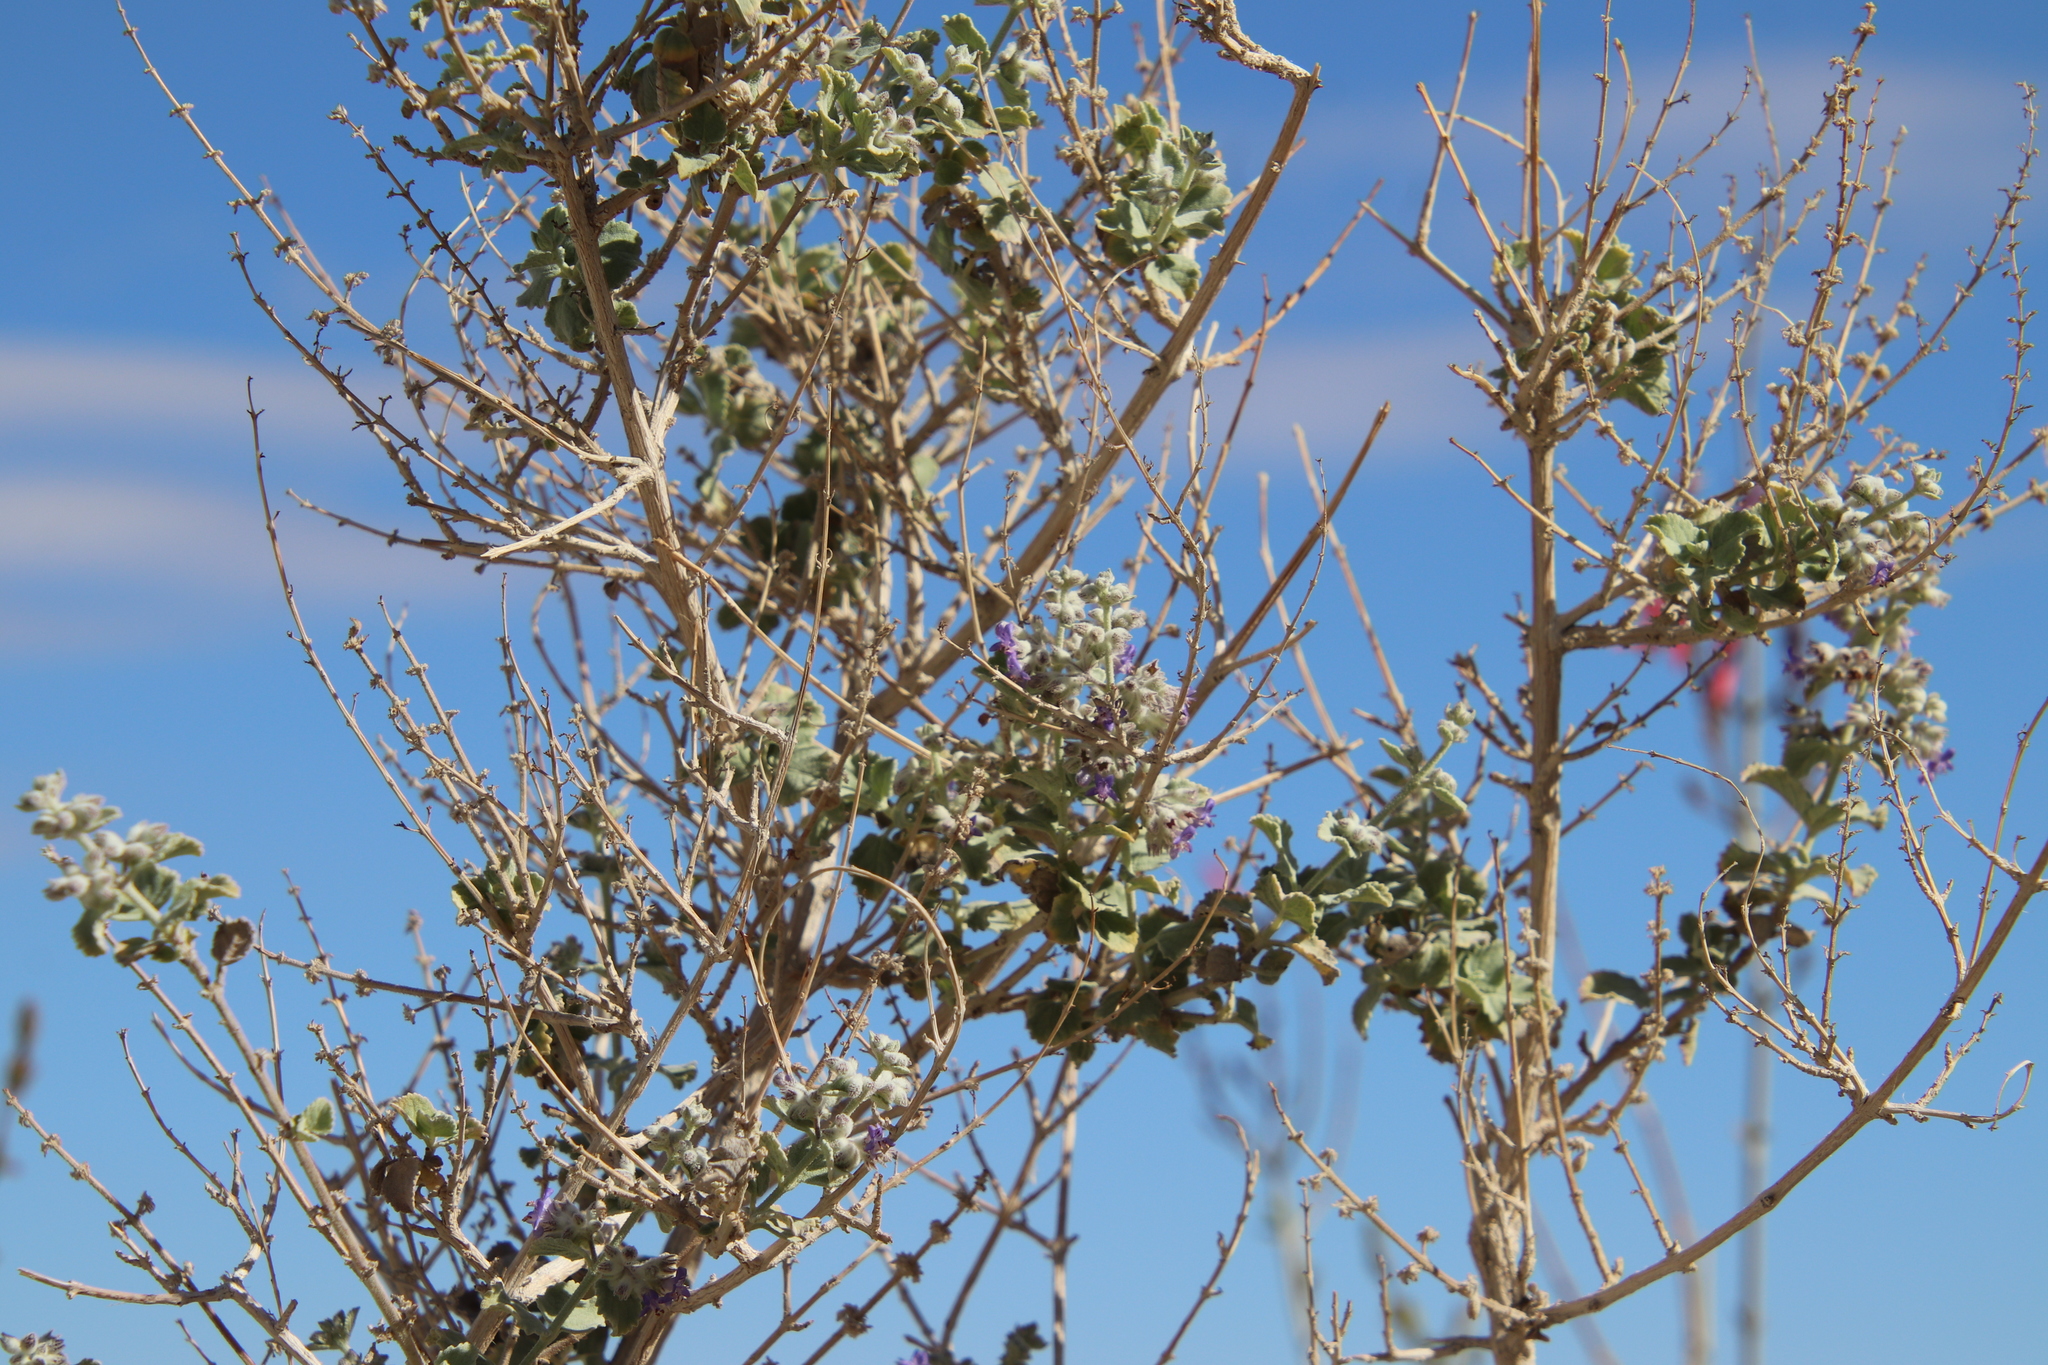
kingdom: Plantae
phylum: Tracheophyta
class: Magnoliopsida
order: Lamiales
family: Lamiaceae
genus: Condea
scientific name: Condea emoryi
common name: Chia
